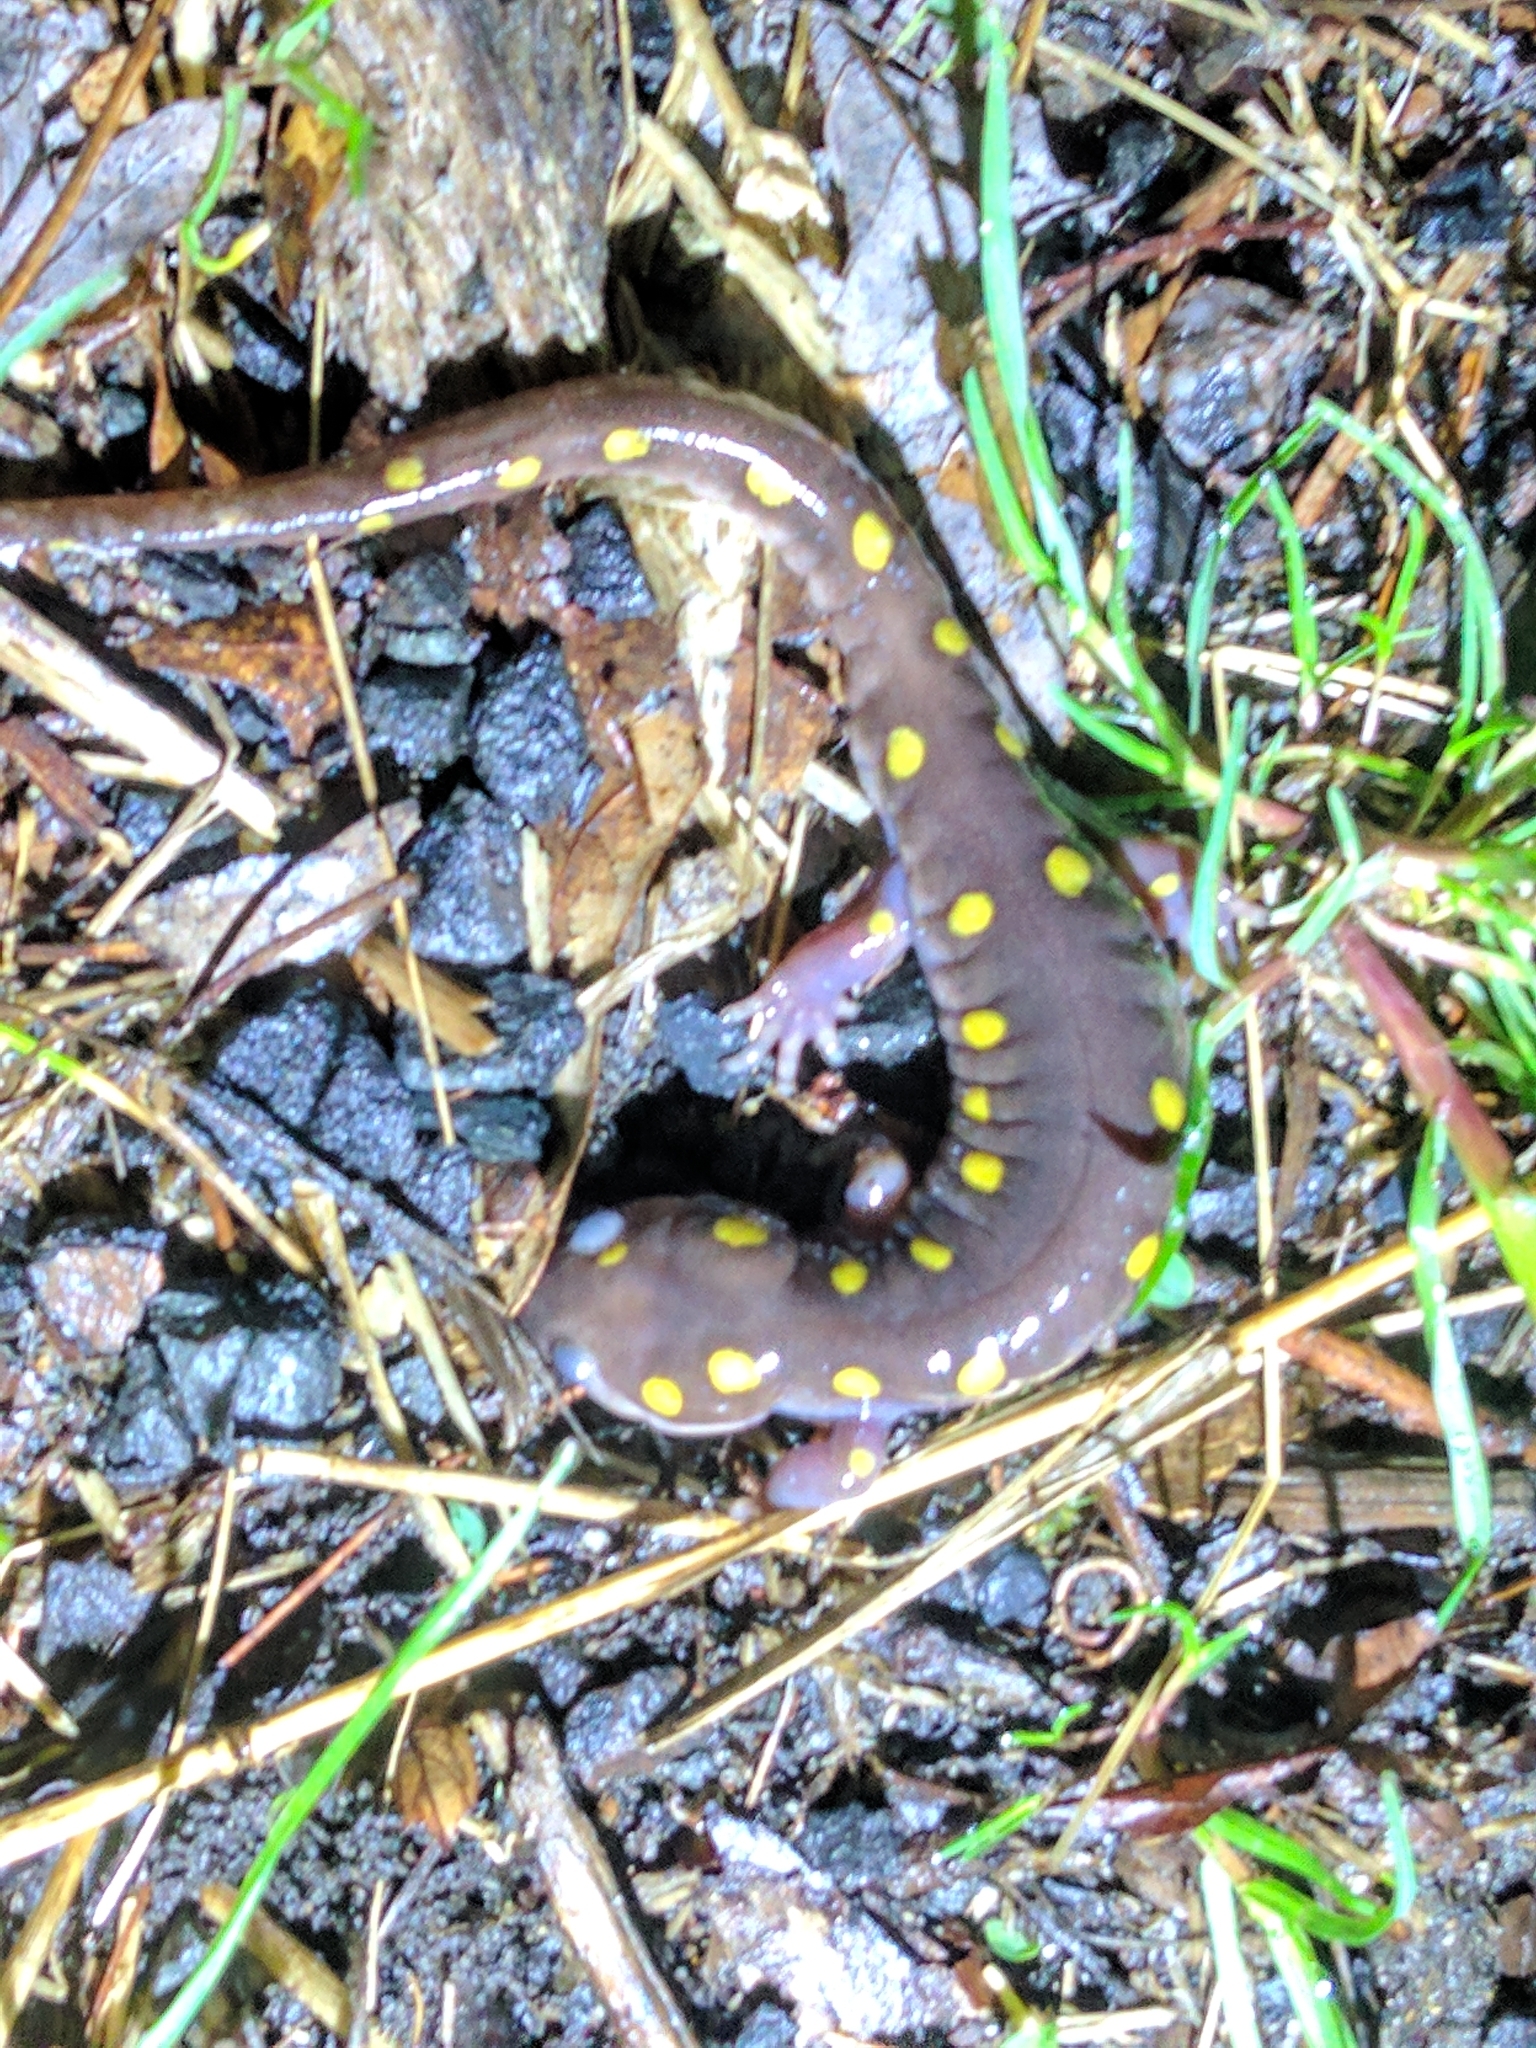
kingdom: Animalia
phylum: Chordata
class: Amphibia
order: Caudata
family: Ambystomatidae
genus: Ambystoma
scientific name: Ambystoma maculatum
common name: Spotted salamander
